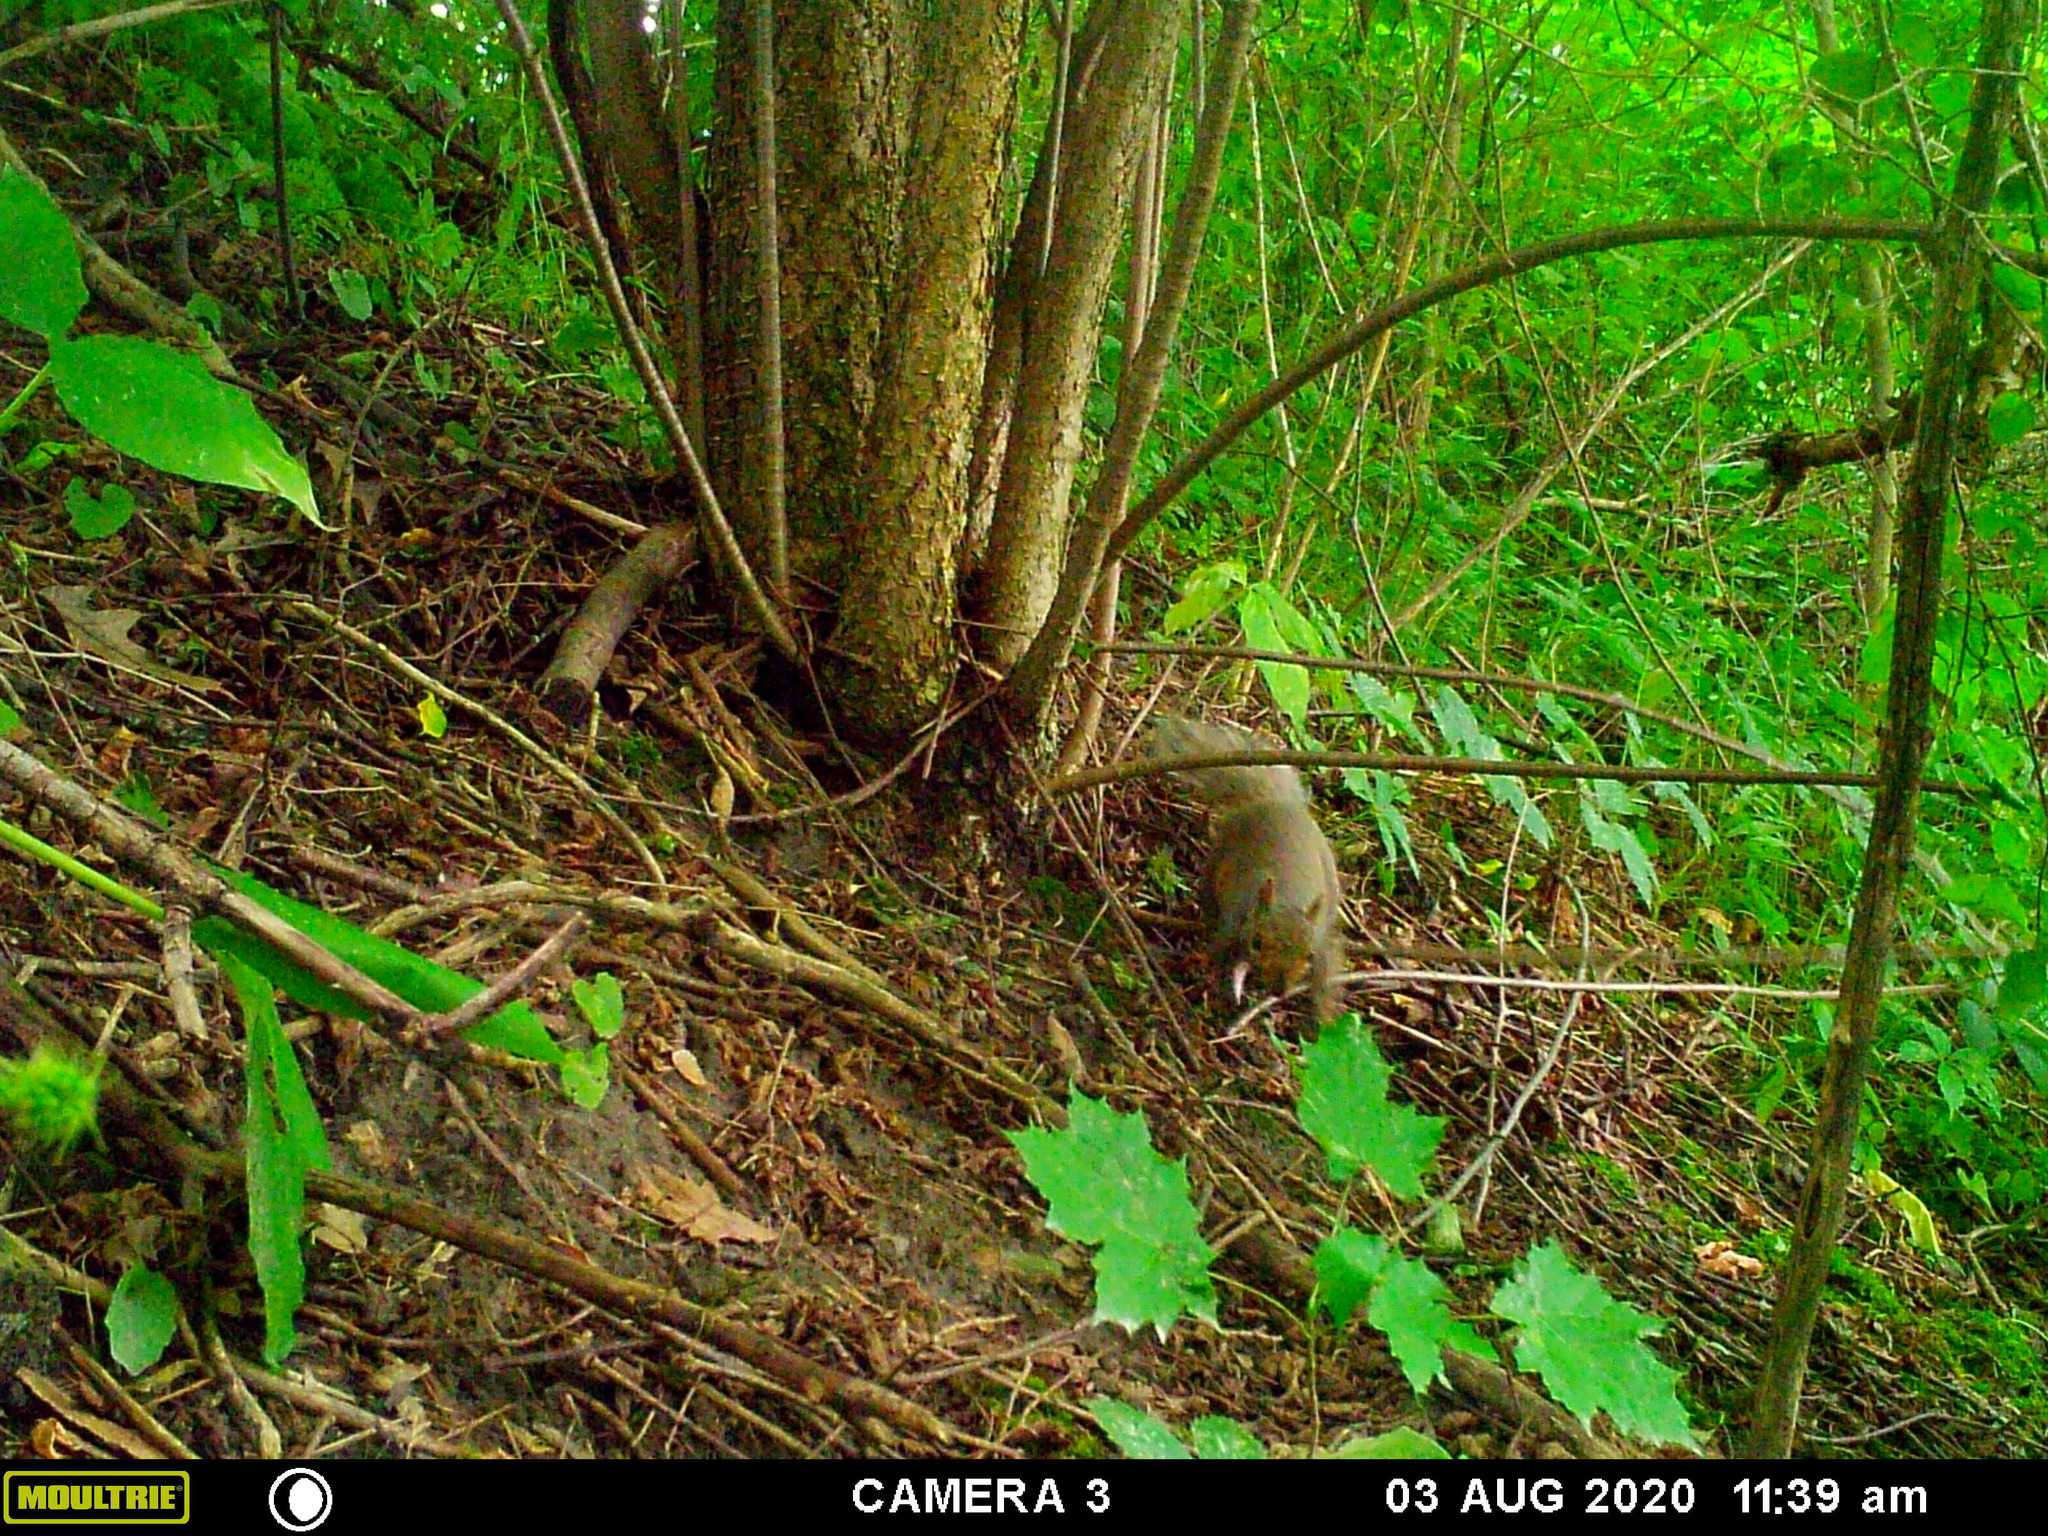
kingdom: Animalia
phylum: Chordata
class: Mammalia
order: Rodentia
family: Sciuridae
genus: Sciurus
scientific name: Sciurus carolinensis
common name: Eastern gray squirrel
